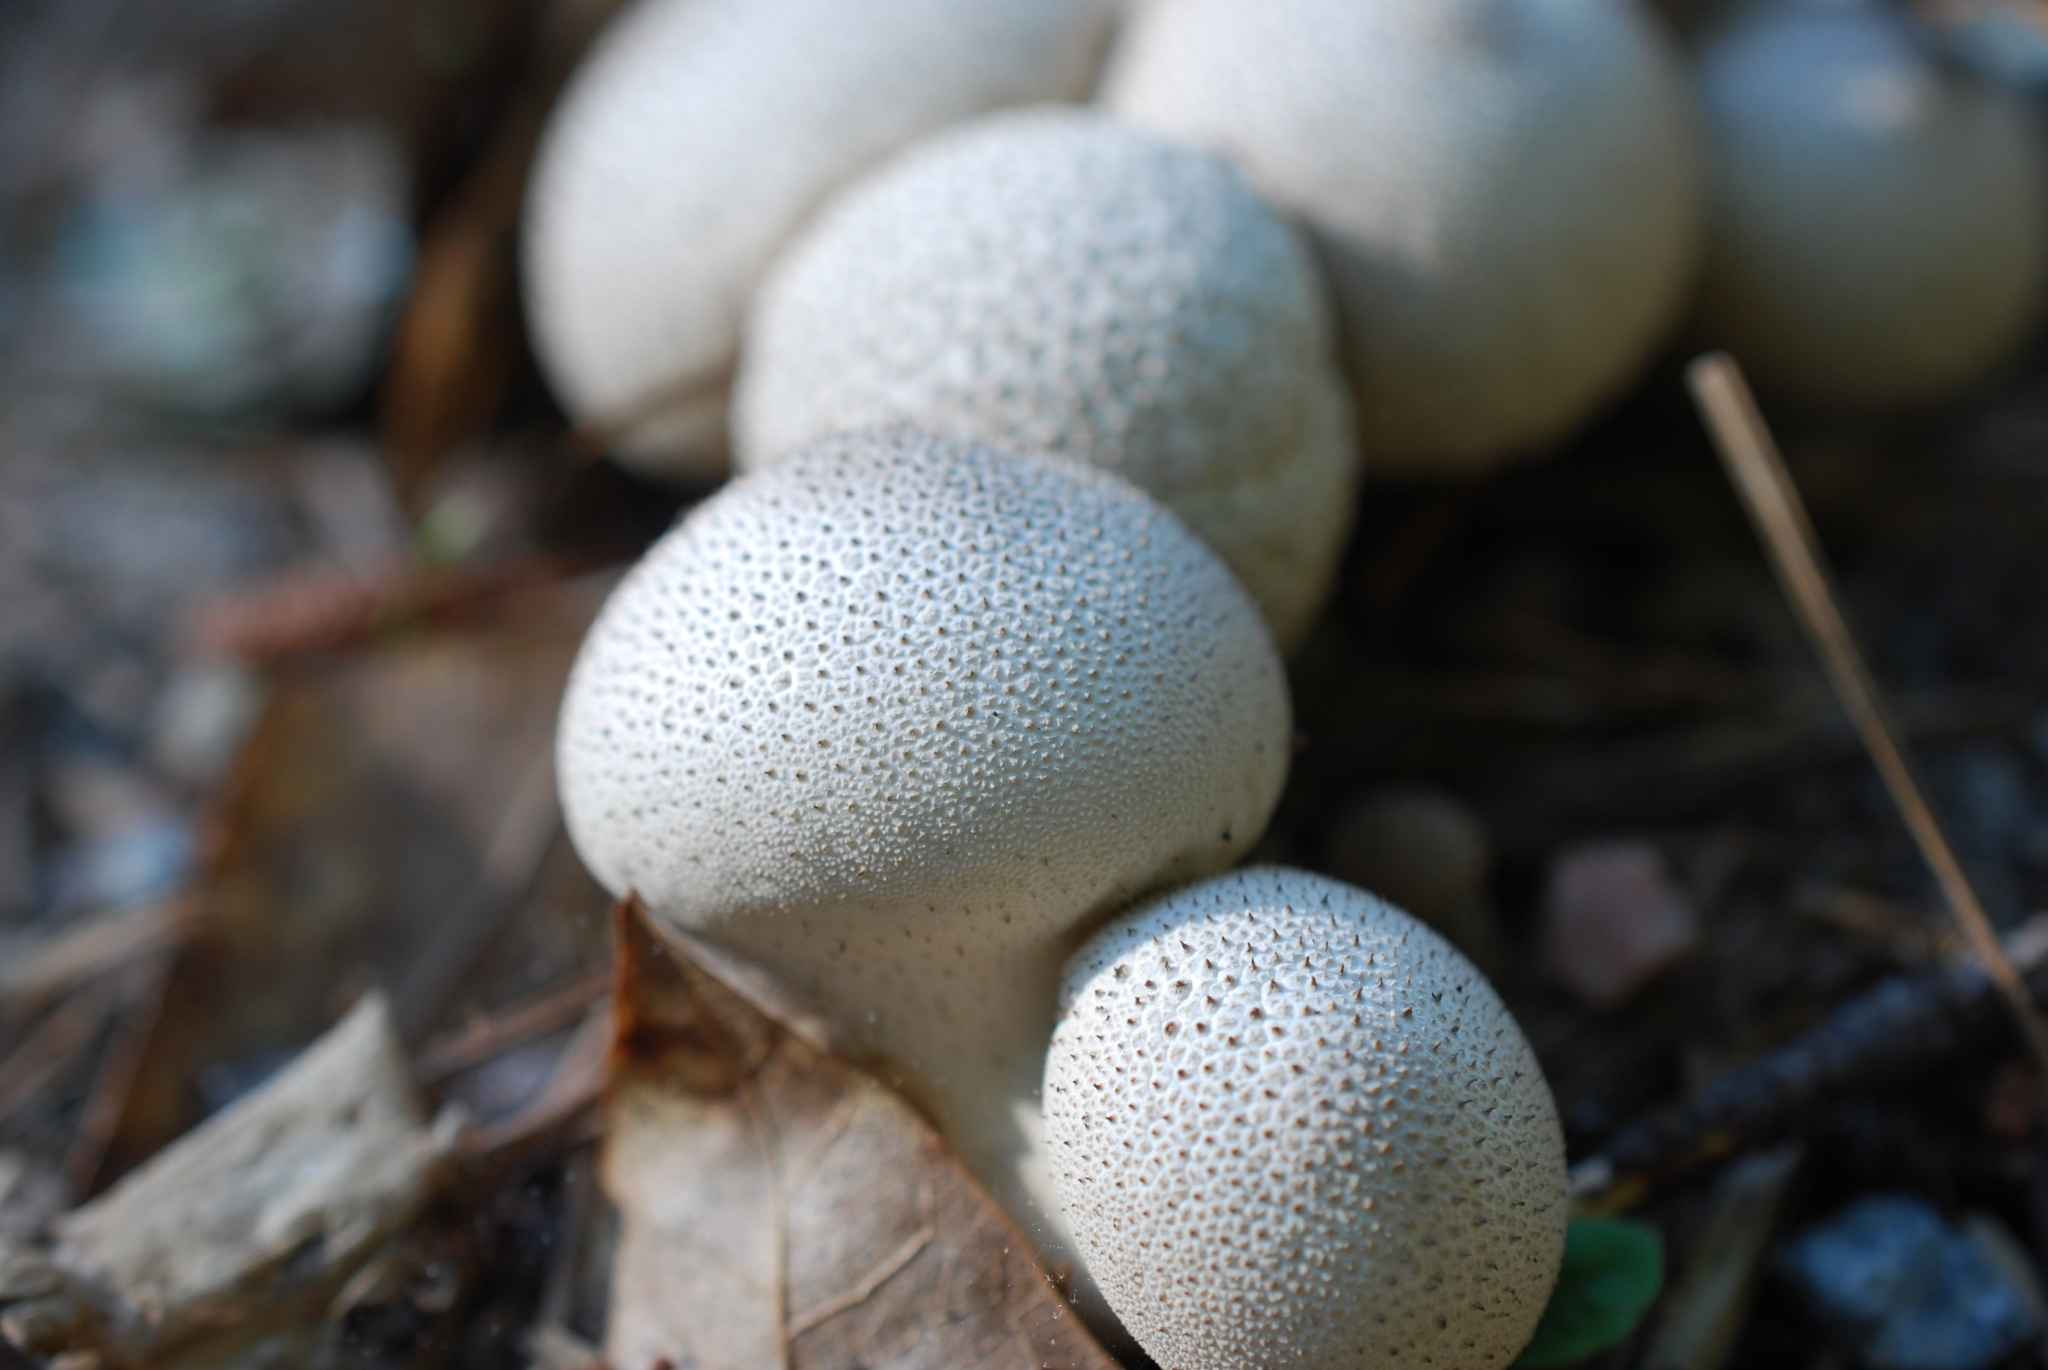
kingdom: Fungi
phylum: Basidiomycota
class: Agaricomycetes
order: Agaricales
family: Lycoperdaceae
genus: Lycoperdon
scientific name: Lycoperdon perlatum
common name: Common puffball
